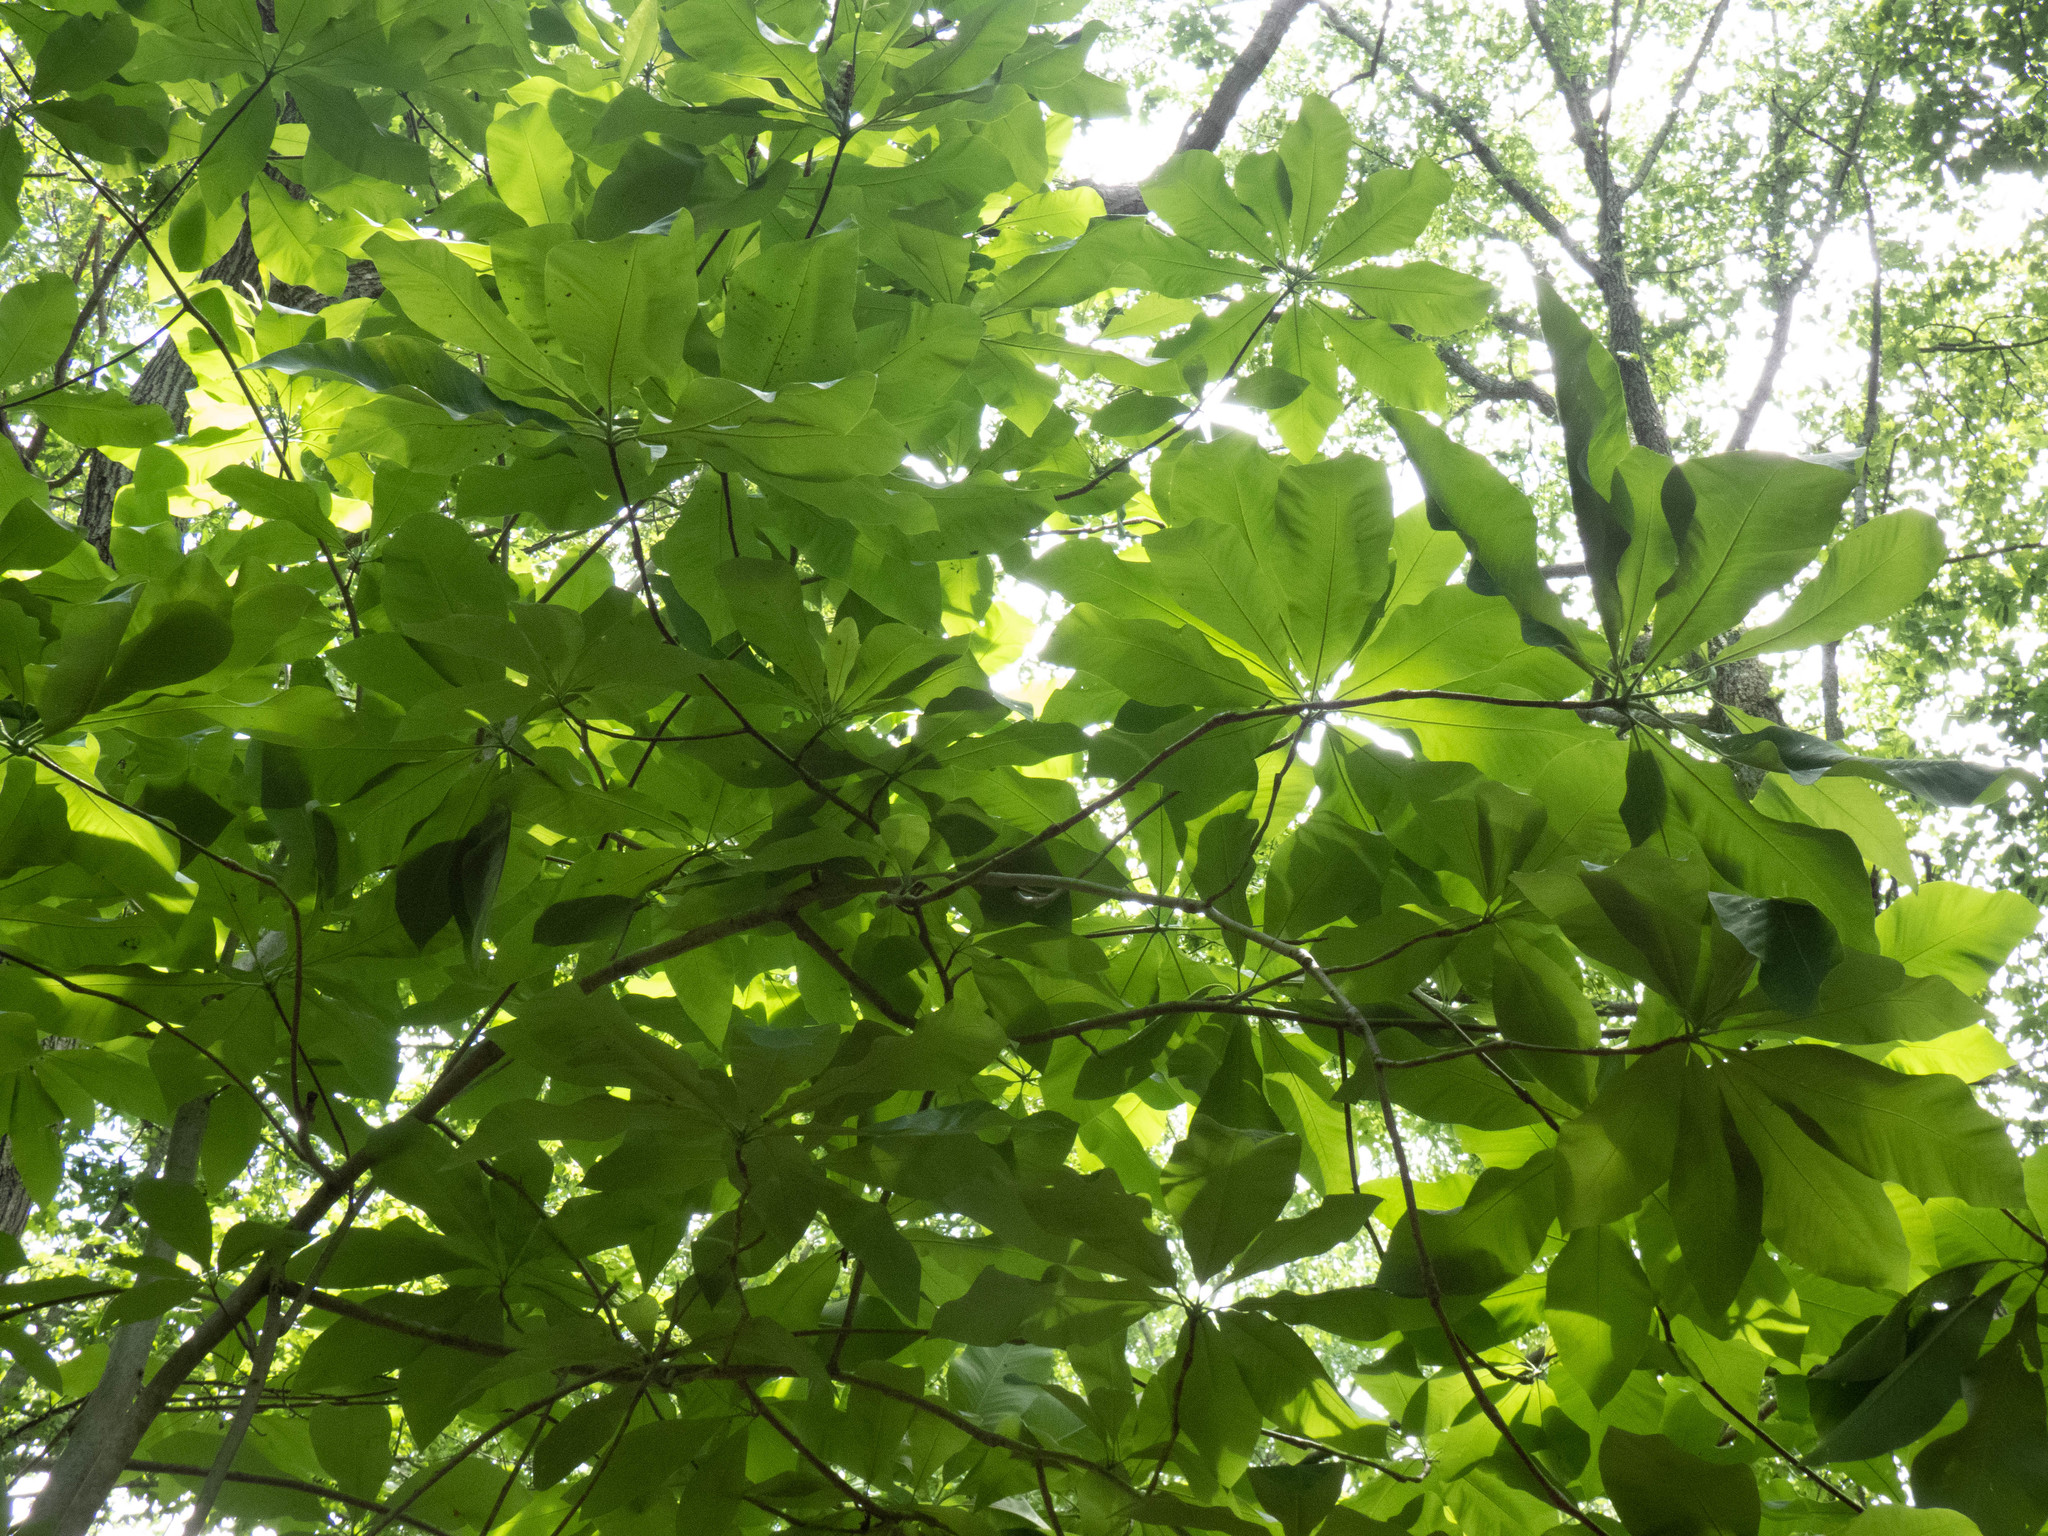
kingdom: Plantae
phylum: Tracheophyta
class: Magnoliopsida
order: Magnoliales
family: Magnoliaceae
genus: Magnolia
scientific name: Magnolia tripetala
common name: Umbrella magnolia
